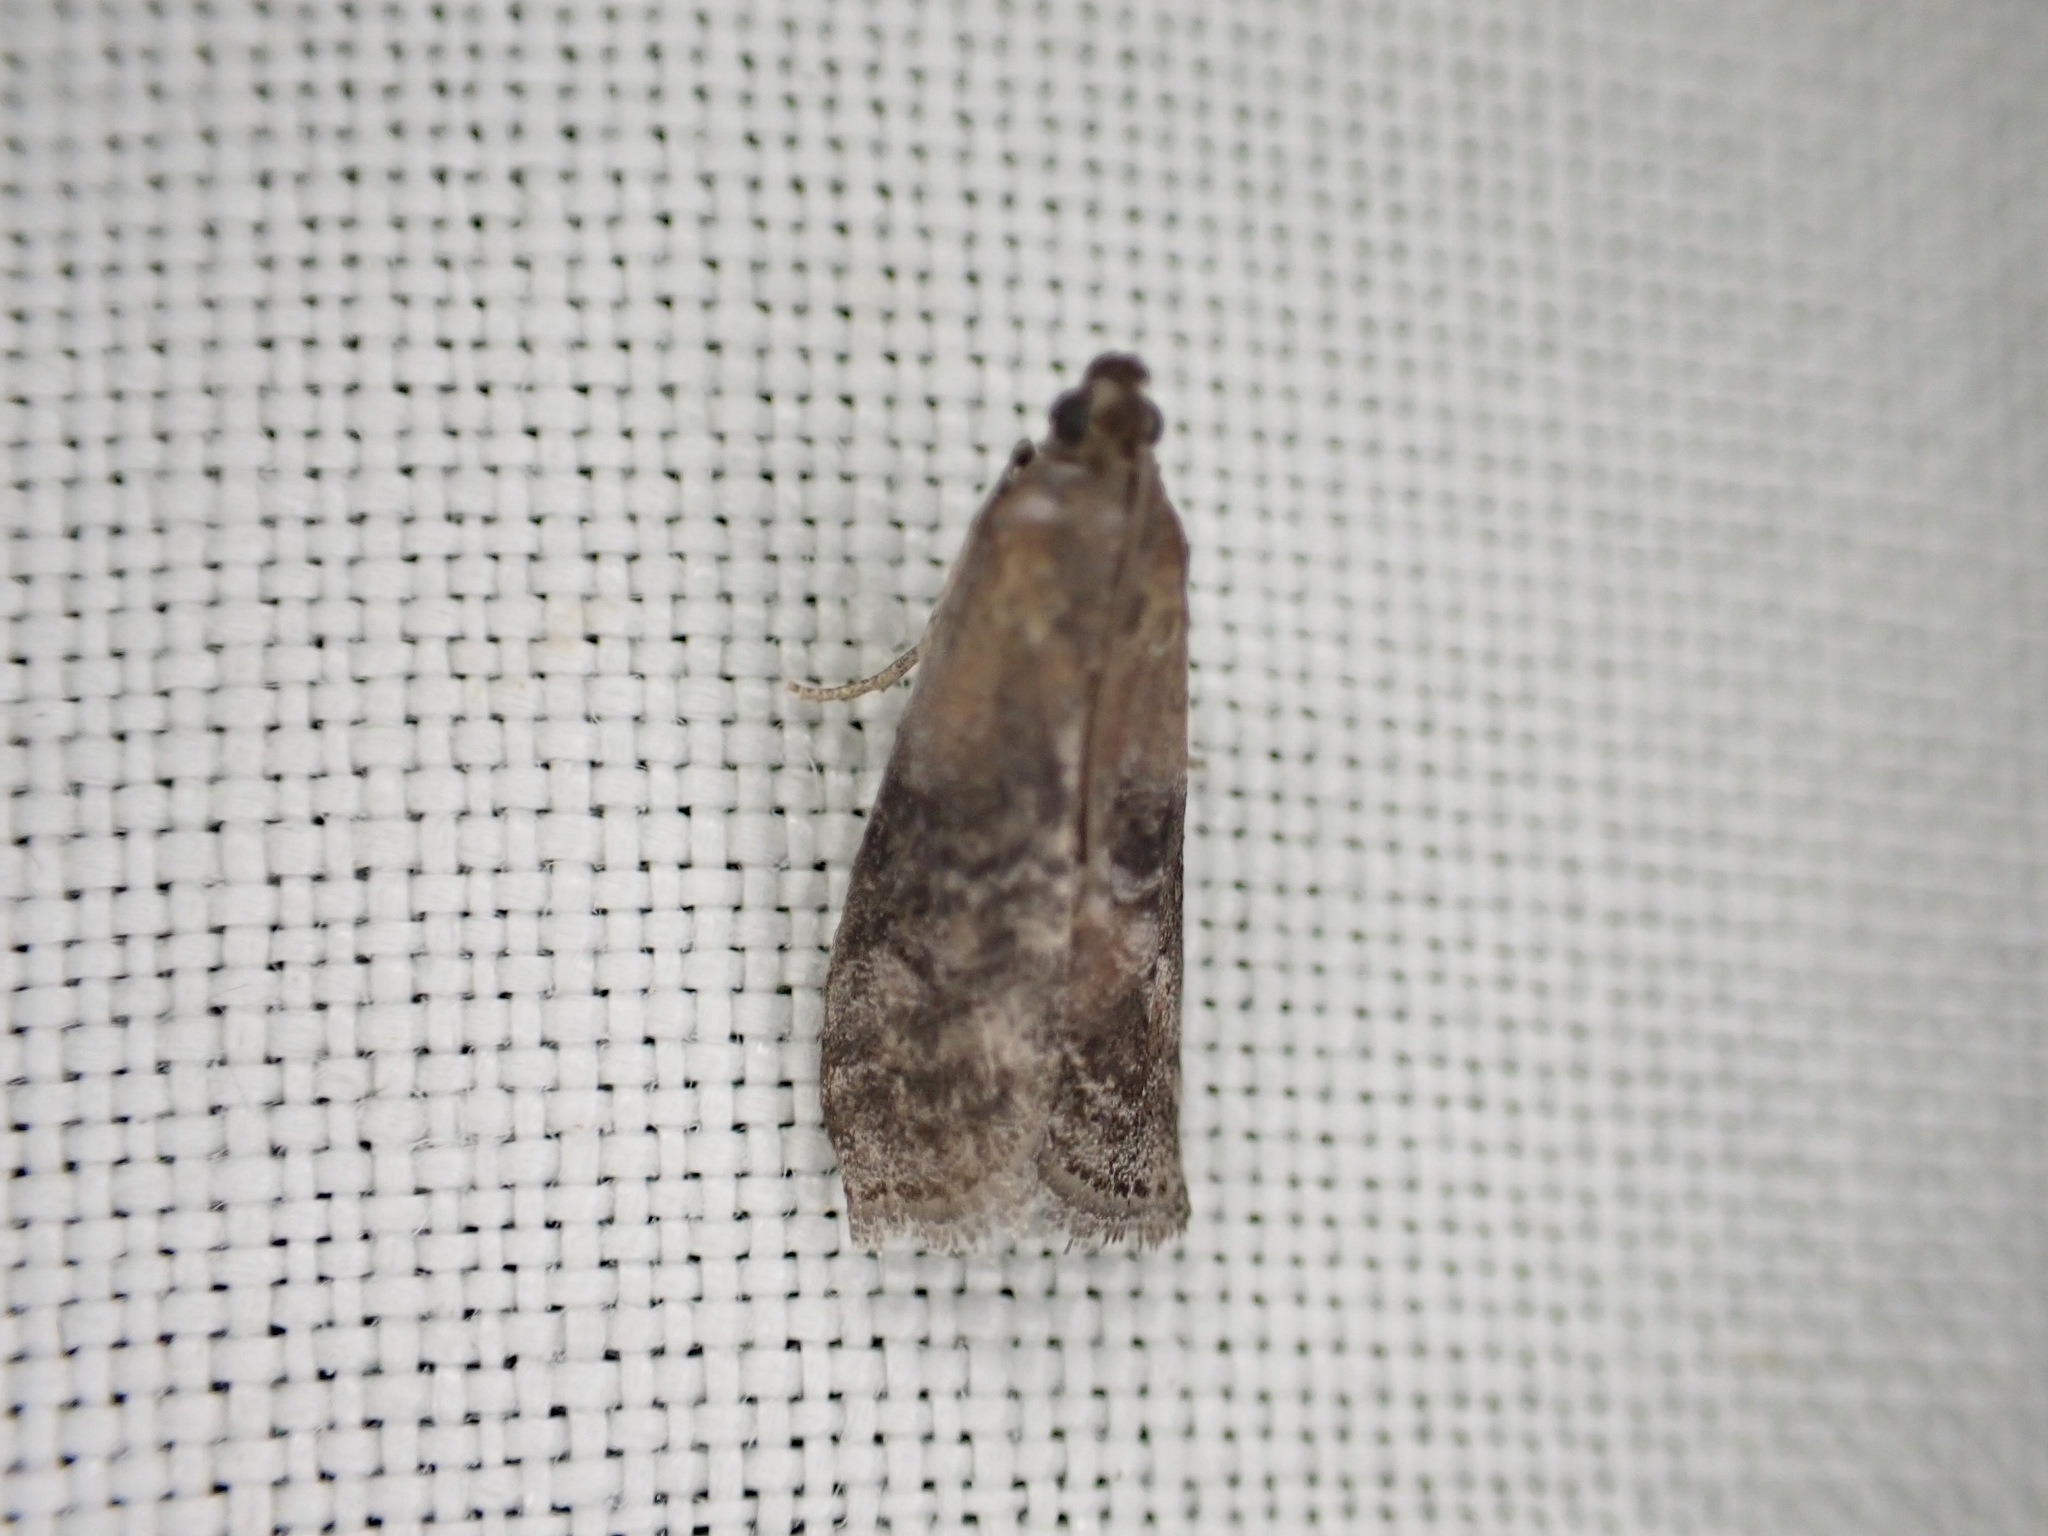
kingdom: Animalia
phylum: Arthropoda
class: Insecta
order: Lepidoptera
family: Pyralidae
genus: Rhodophaea
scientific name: Rhodophaea formosa
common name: Beautiful knot-horn
